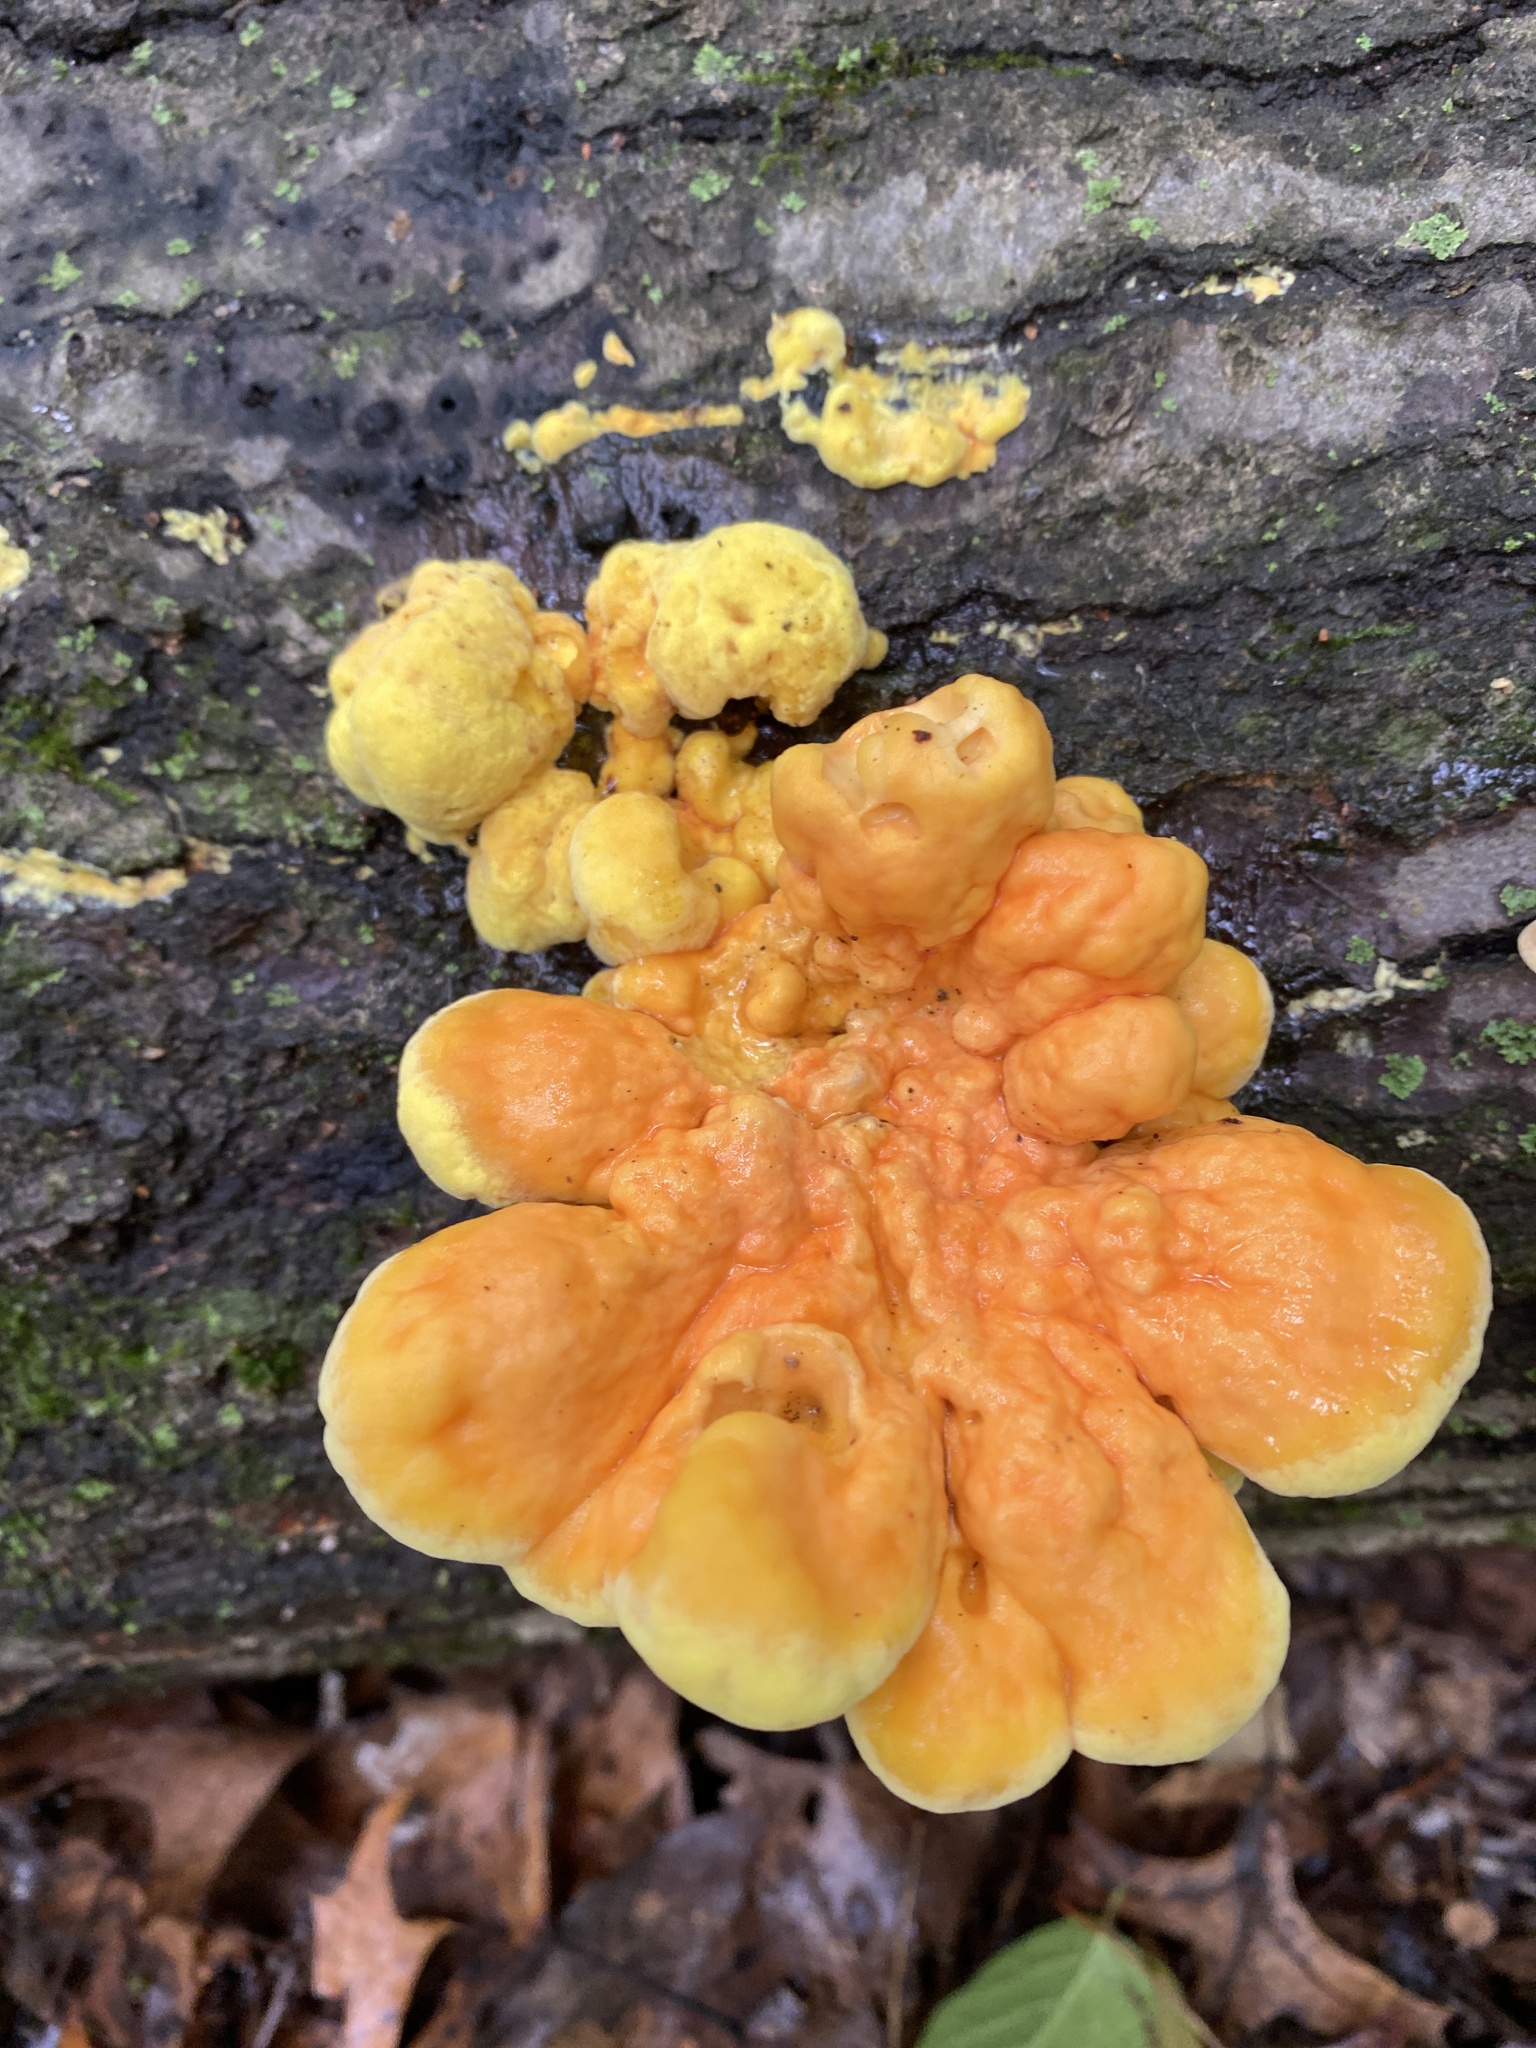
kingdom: Fungi
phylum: Basidiomycota
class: Agaricomycetes
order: Polyporales
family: Laetiporaceae
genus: Laetiporus
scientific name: Laetiporus sulphureus
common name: Chicken of the woods
